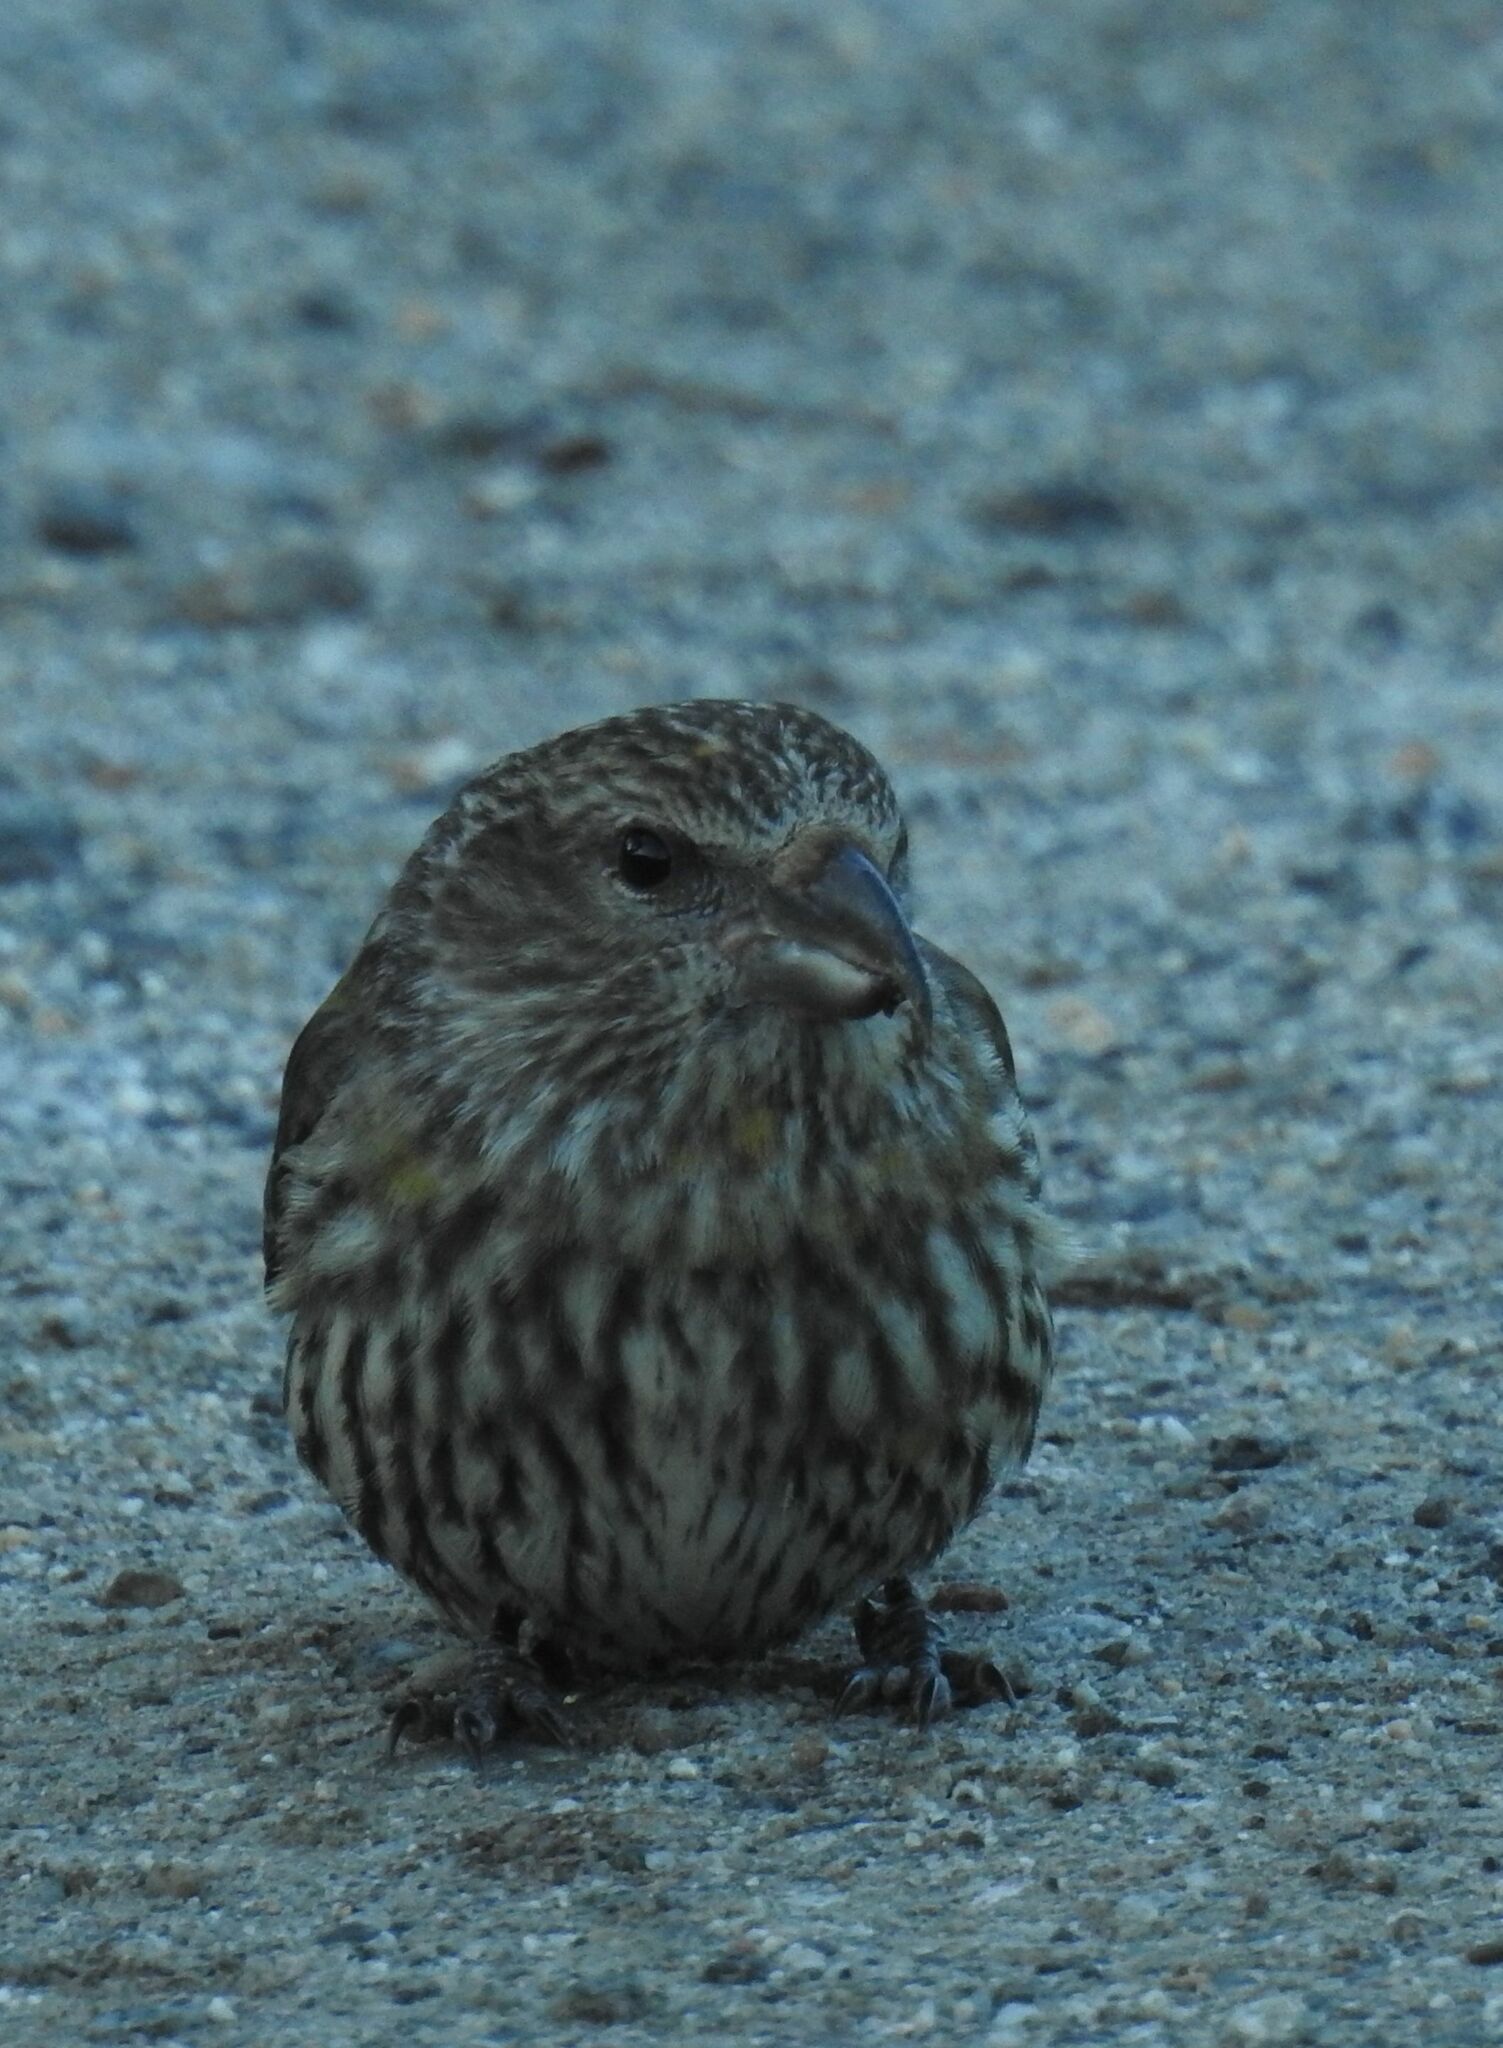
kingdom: Animalia
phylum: Chordata
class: Aves
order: Passeriformes
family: Fringillidae
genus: Loxia
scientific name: Loxia curvirostra
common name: Red crossbill
